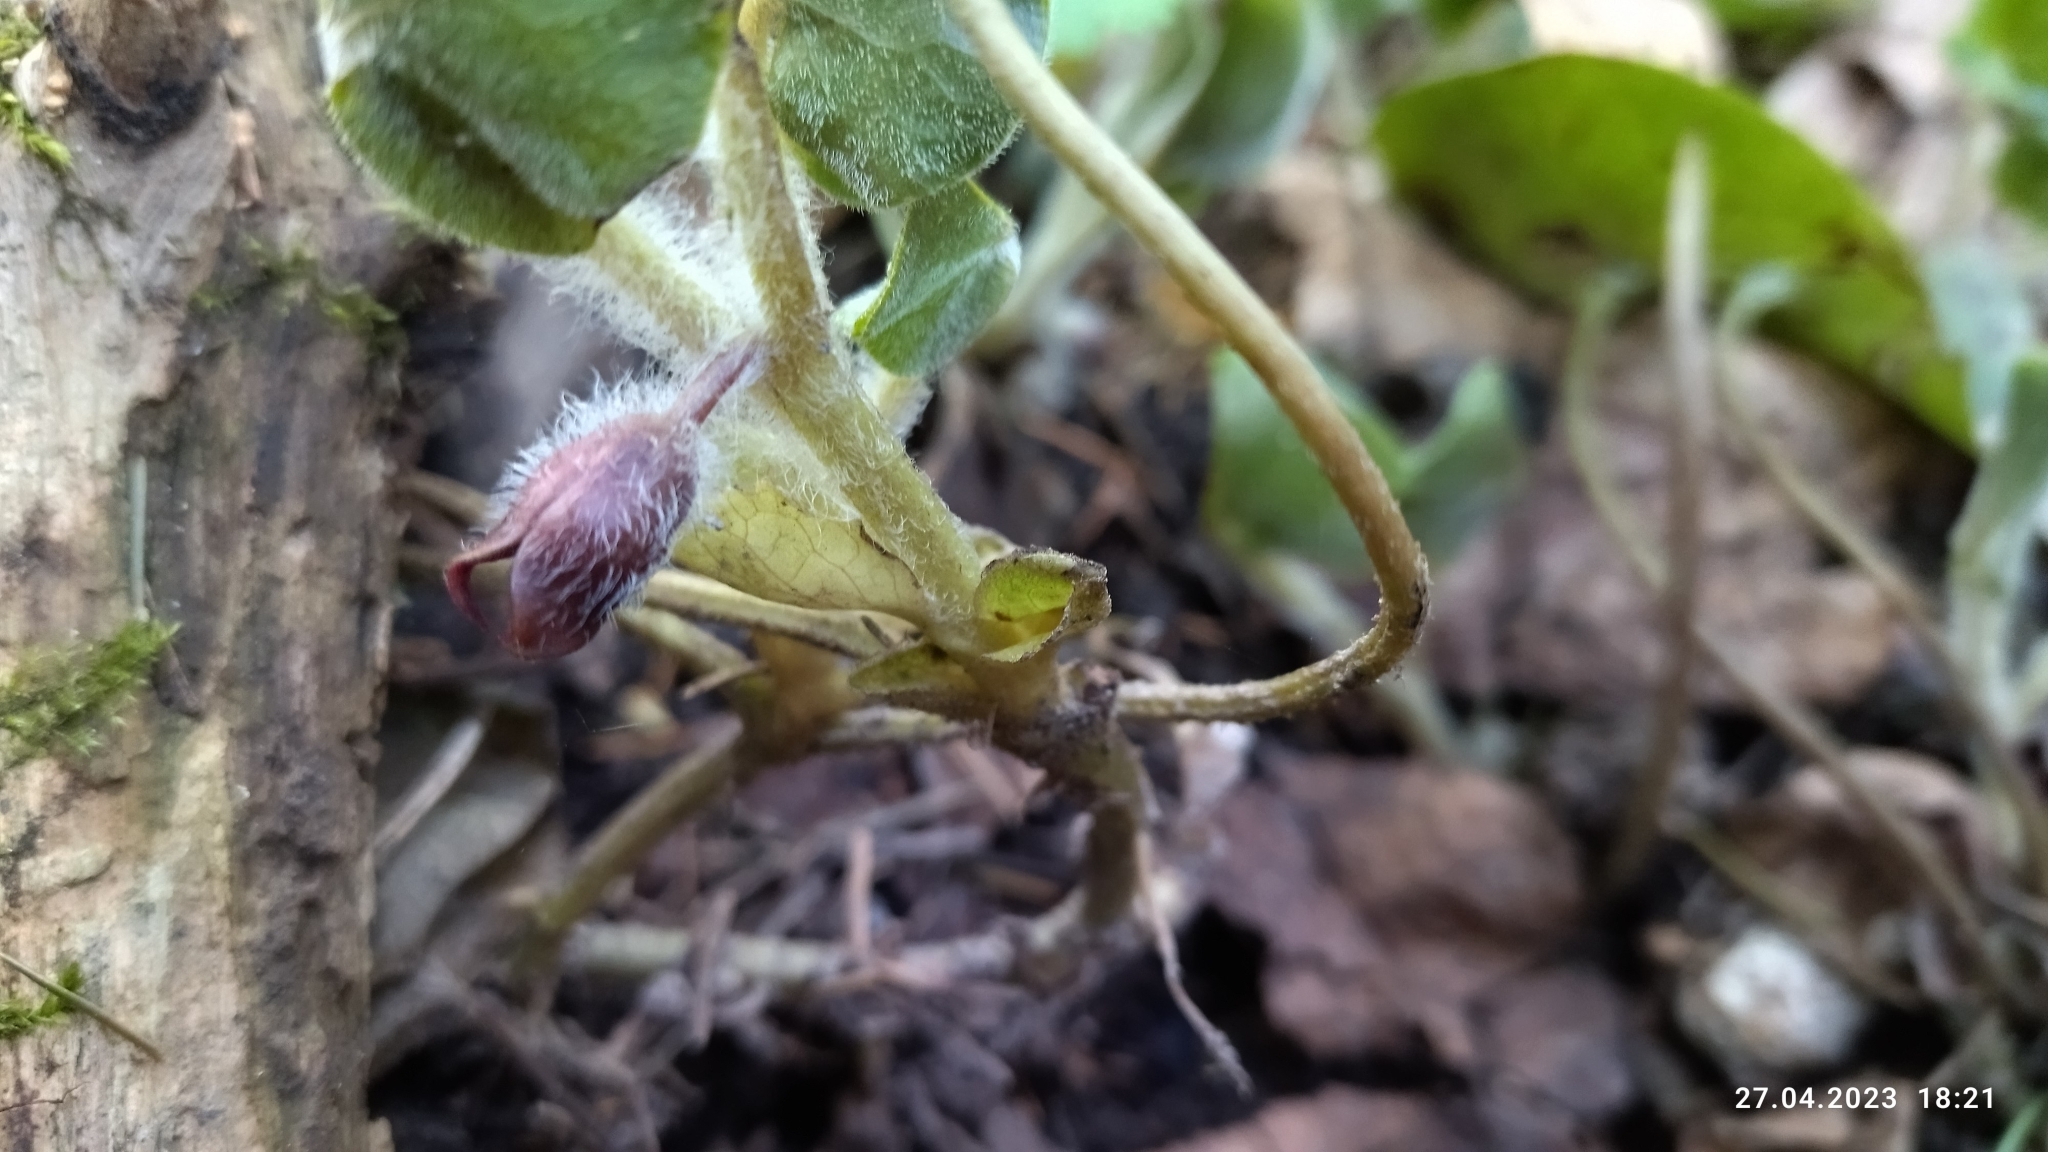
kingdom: Plantae
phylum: Tracheophyta
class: Magnoliopsida
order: Piperales
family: Aristolochiaceae
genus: Asarum
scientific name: Asarum europaeum
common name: Asarabacca
